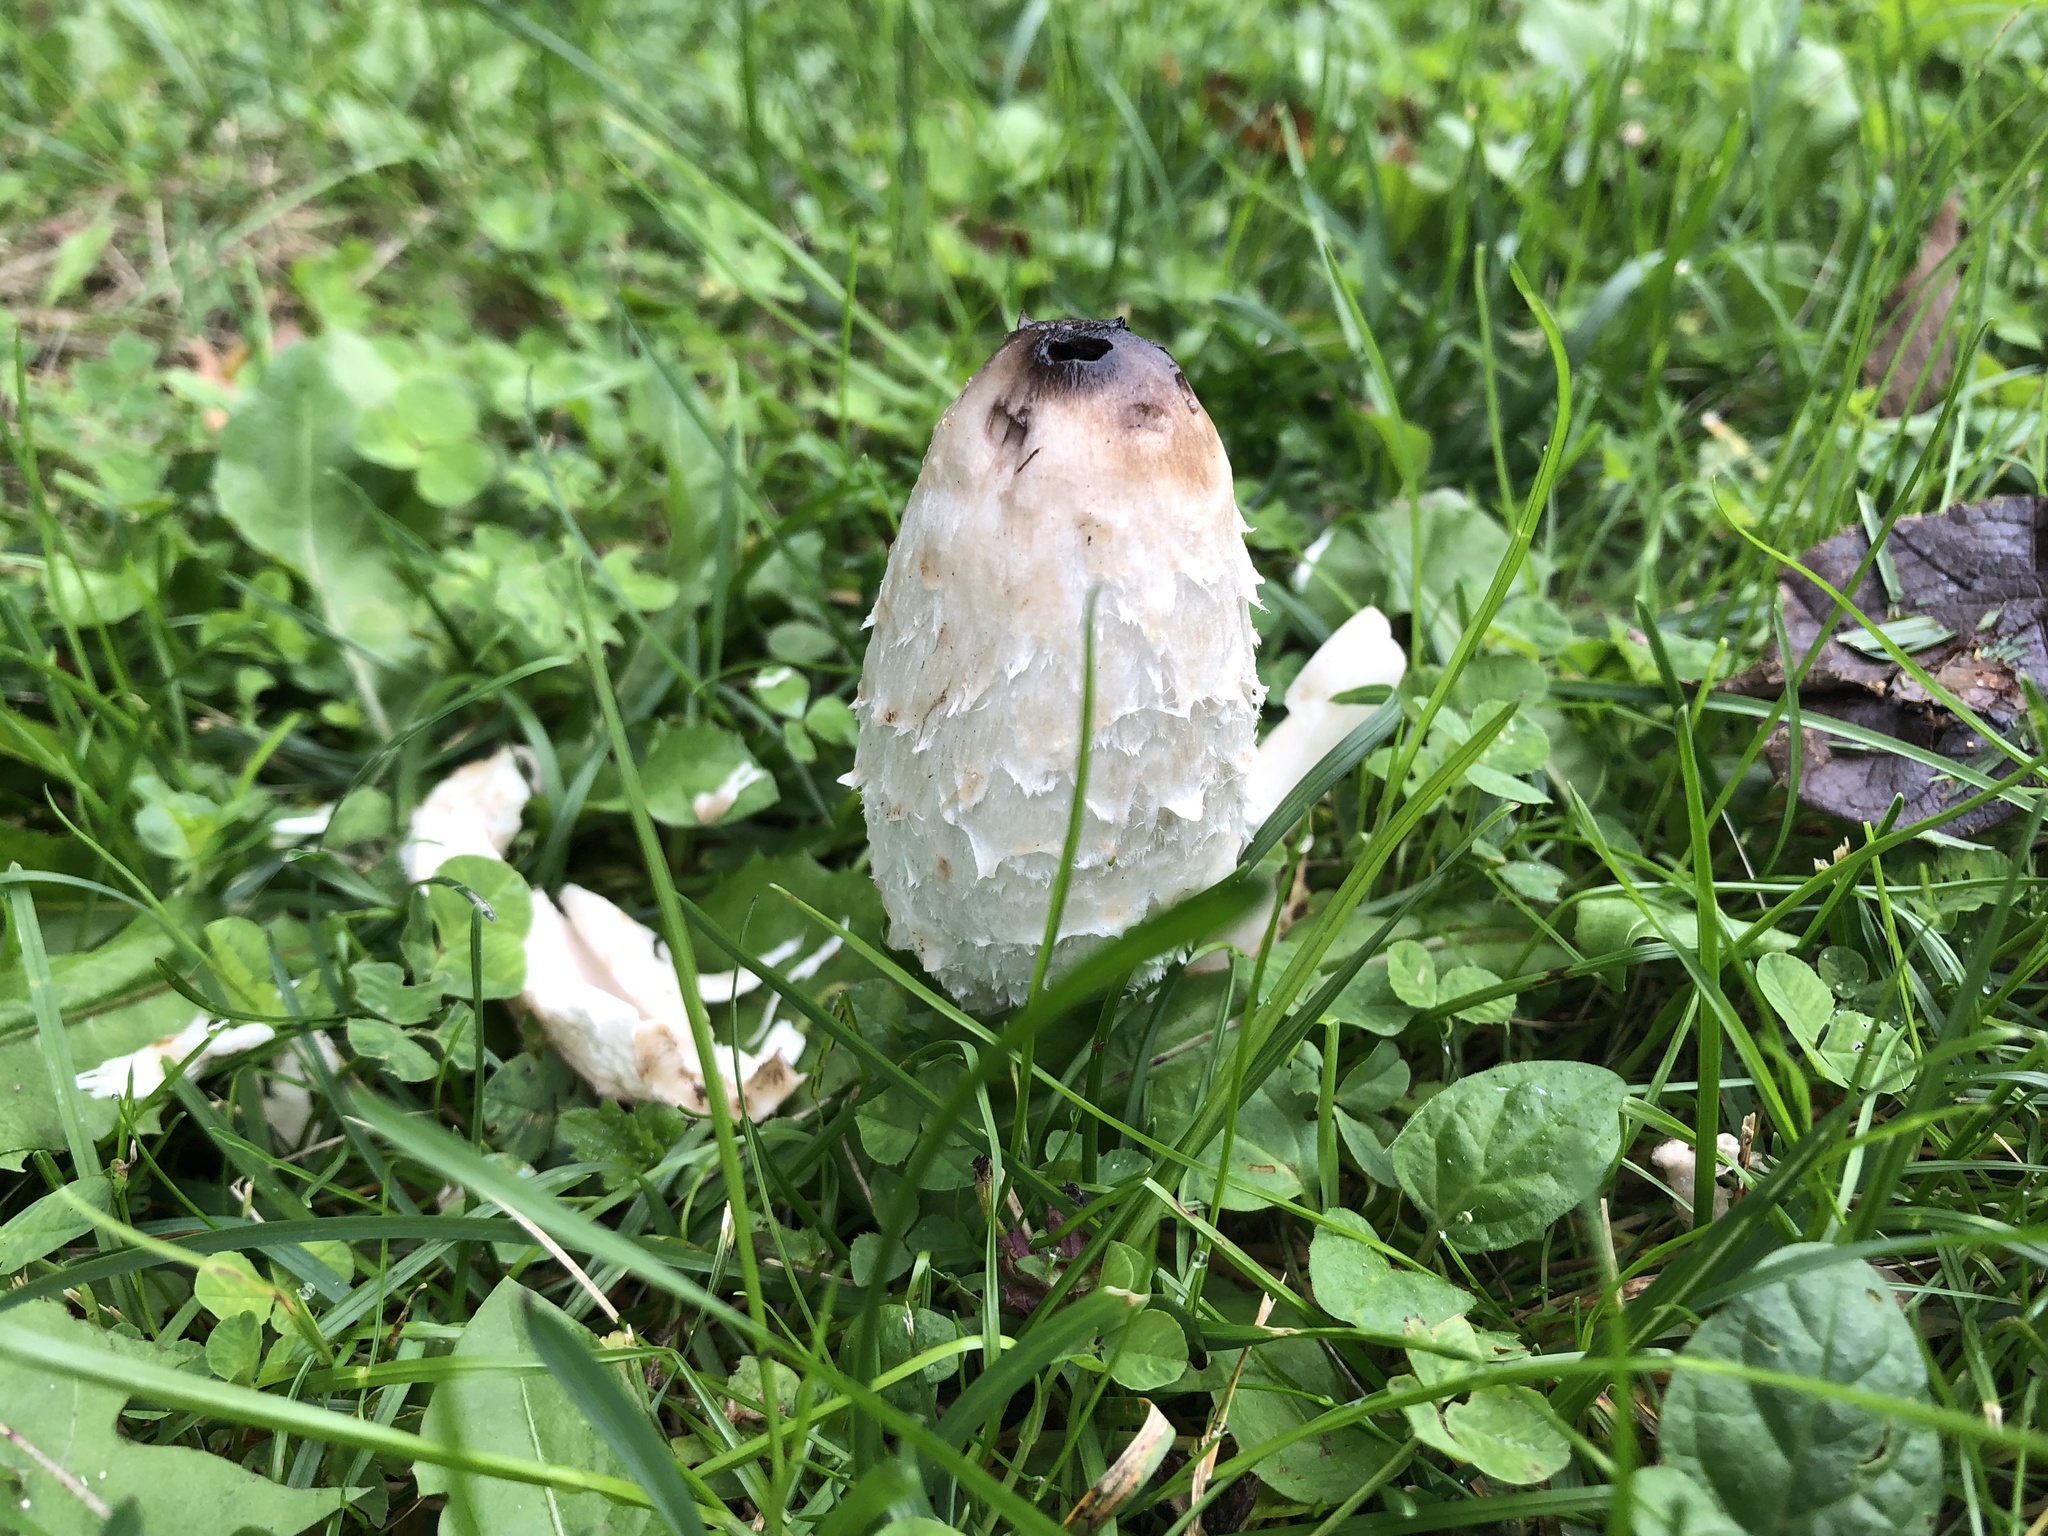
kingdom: Fungi
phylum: Basidiomycota
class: Agaricomycetes
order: Agaricales
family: Agaricaceae
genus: Coprinus
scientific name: Coprinus comatus
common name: Lawyer's wig
